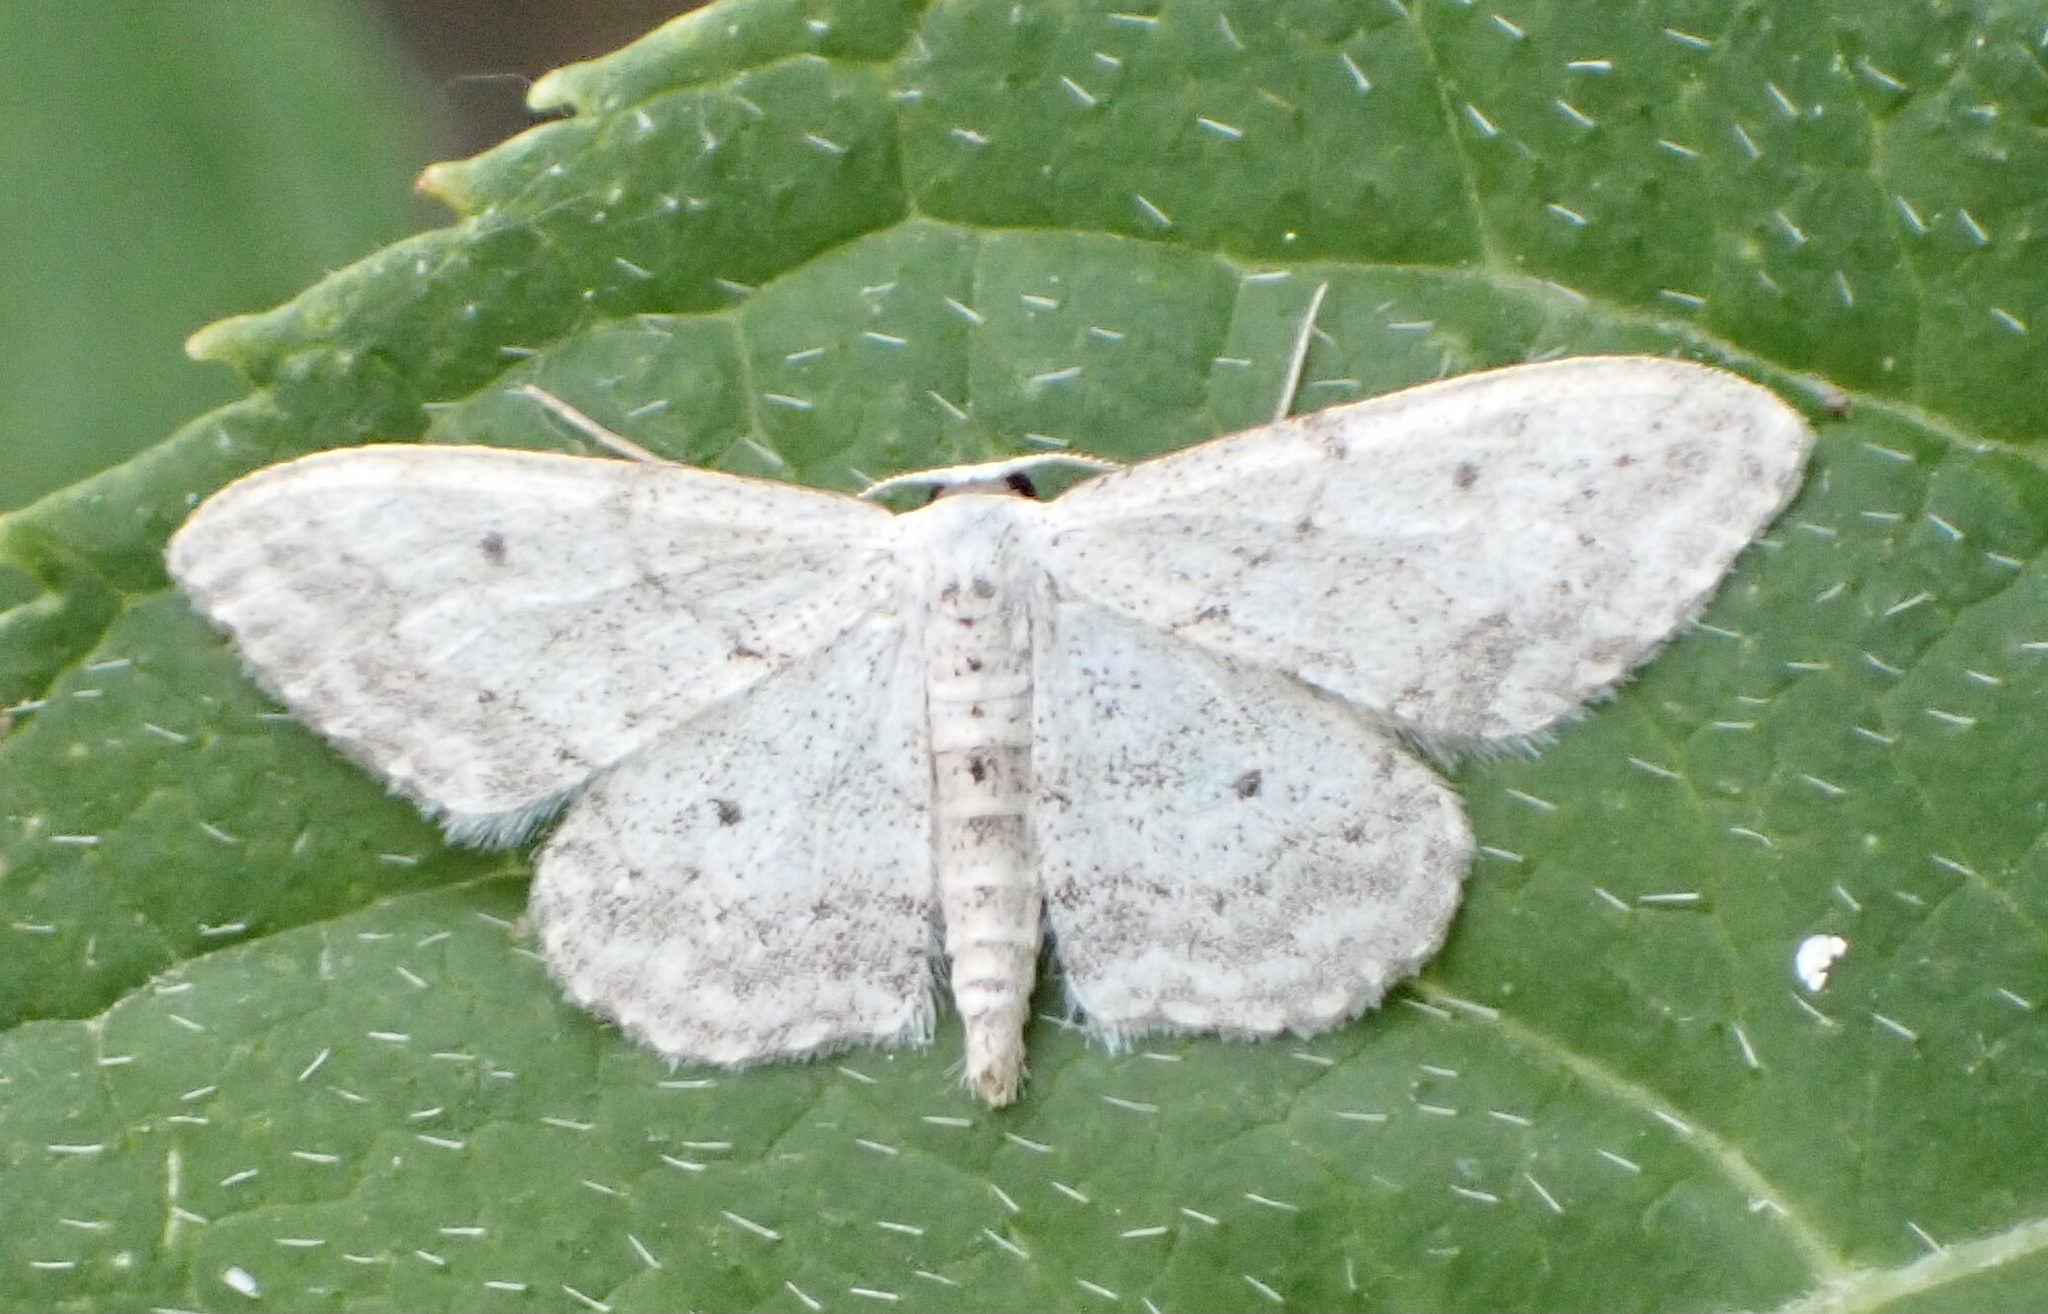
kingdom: Animalia
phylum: Arthropoda
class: Insecta
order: Lepidoptera
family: Geometridae
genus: Idaea
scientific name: Idaea seriata
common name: Small dusty wave
